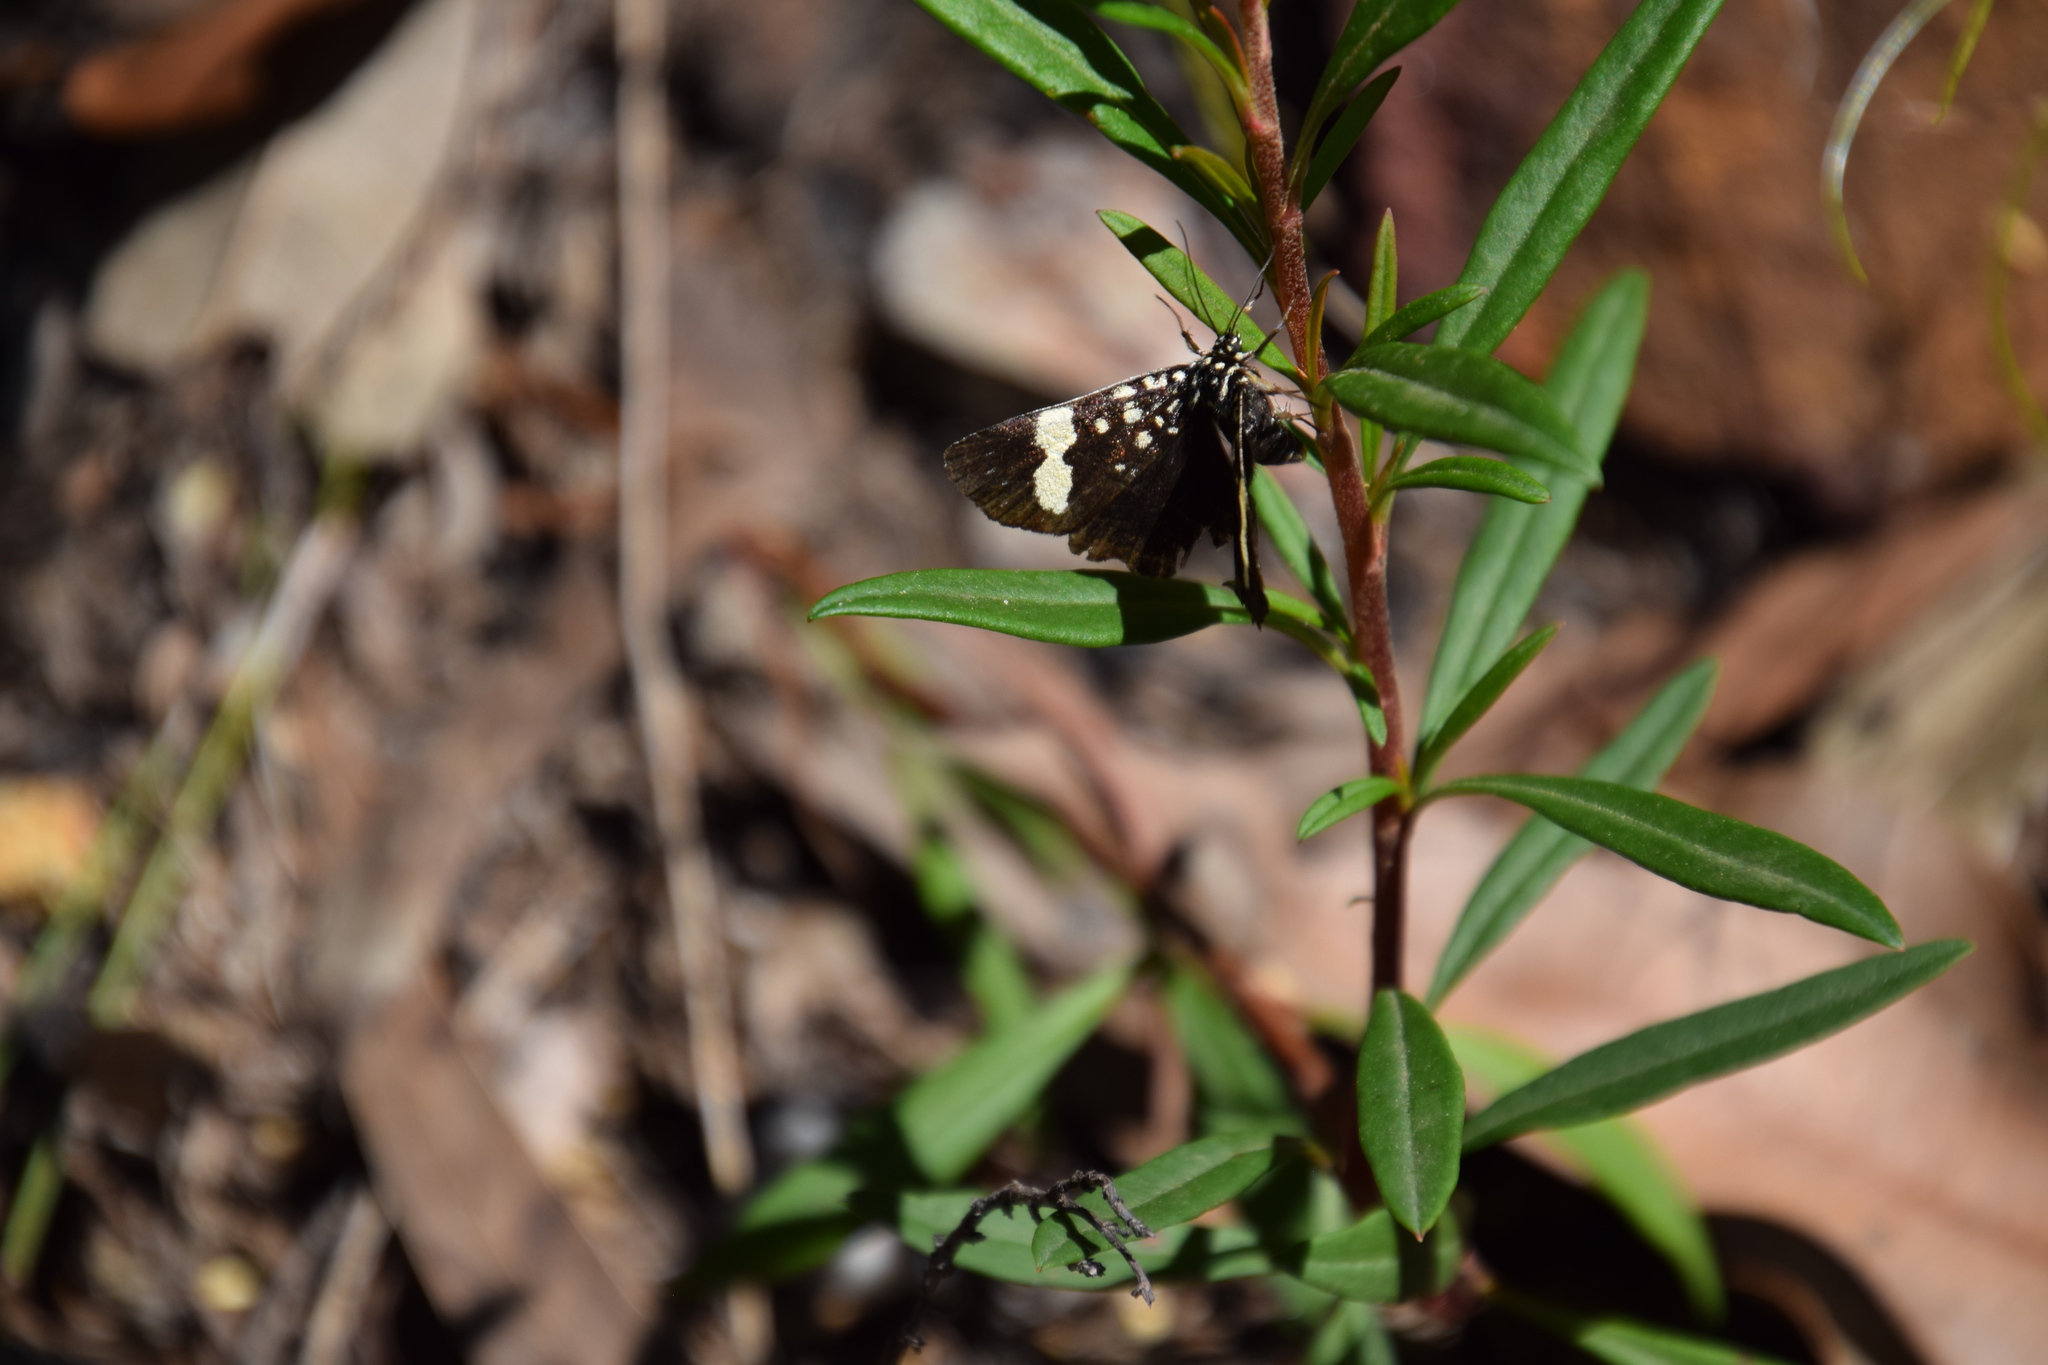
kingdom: Animalia
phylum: Arthropoda
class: Insecta
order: Lepidoptera
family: Noctuidae
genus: Idalima
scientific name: Idalima affinis
